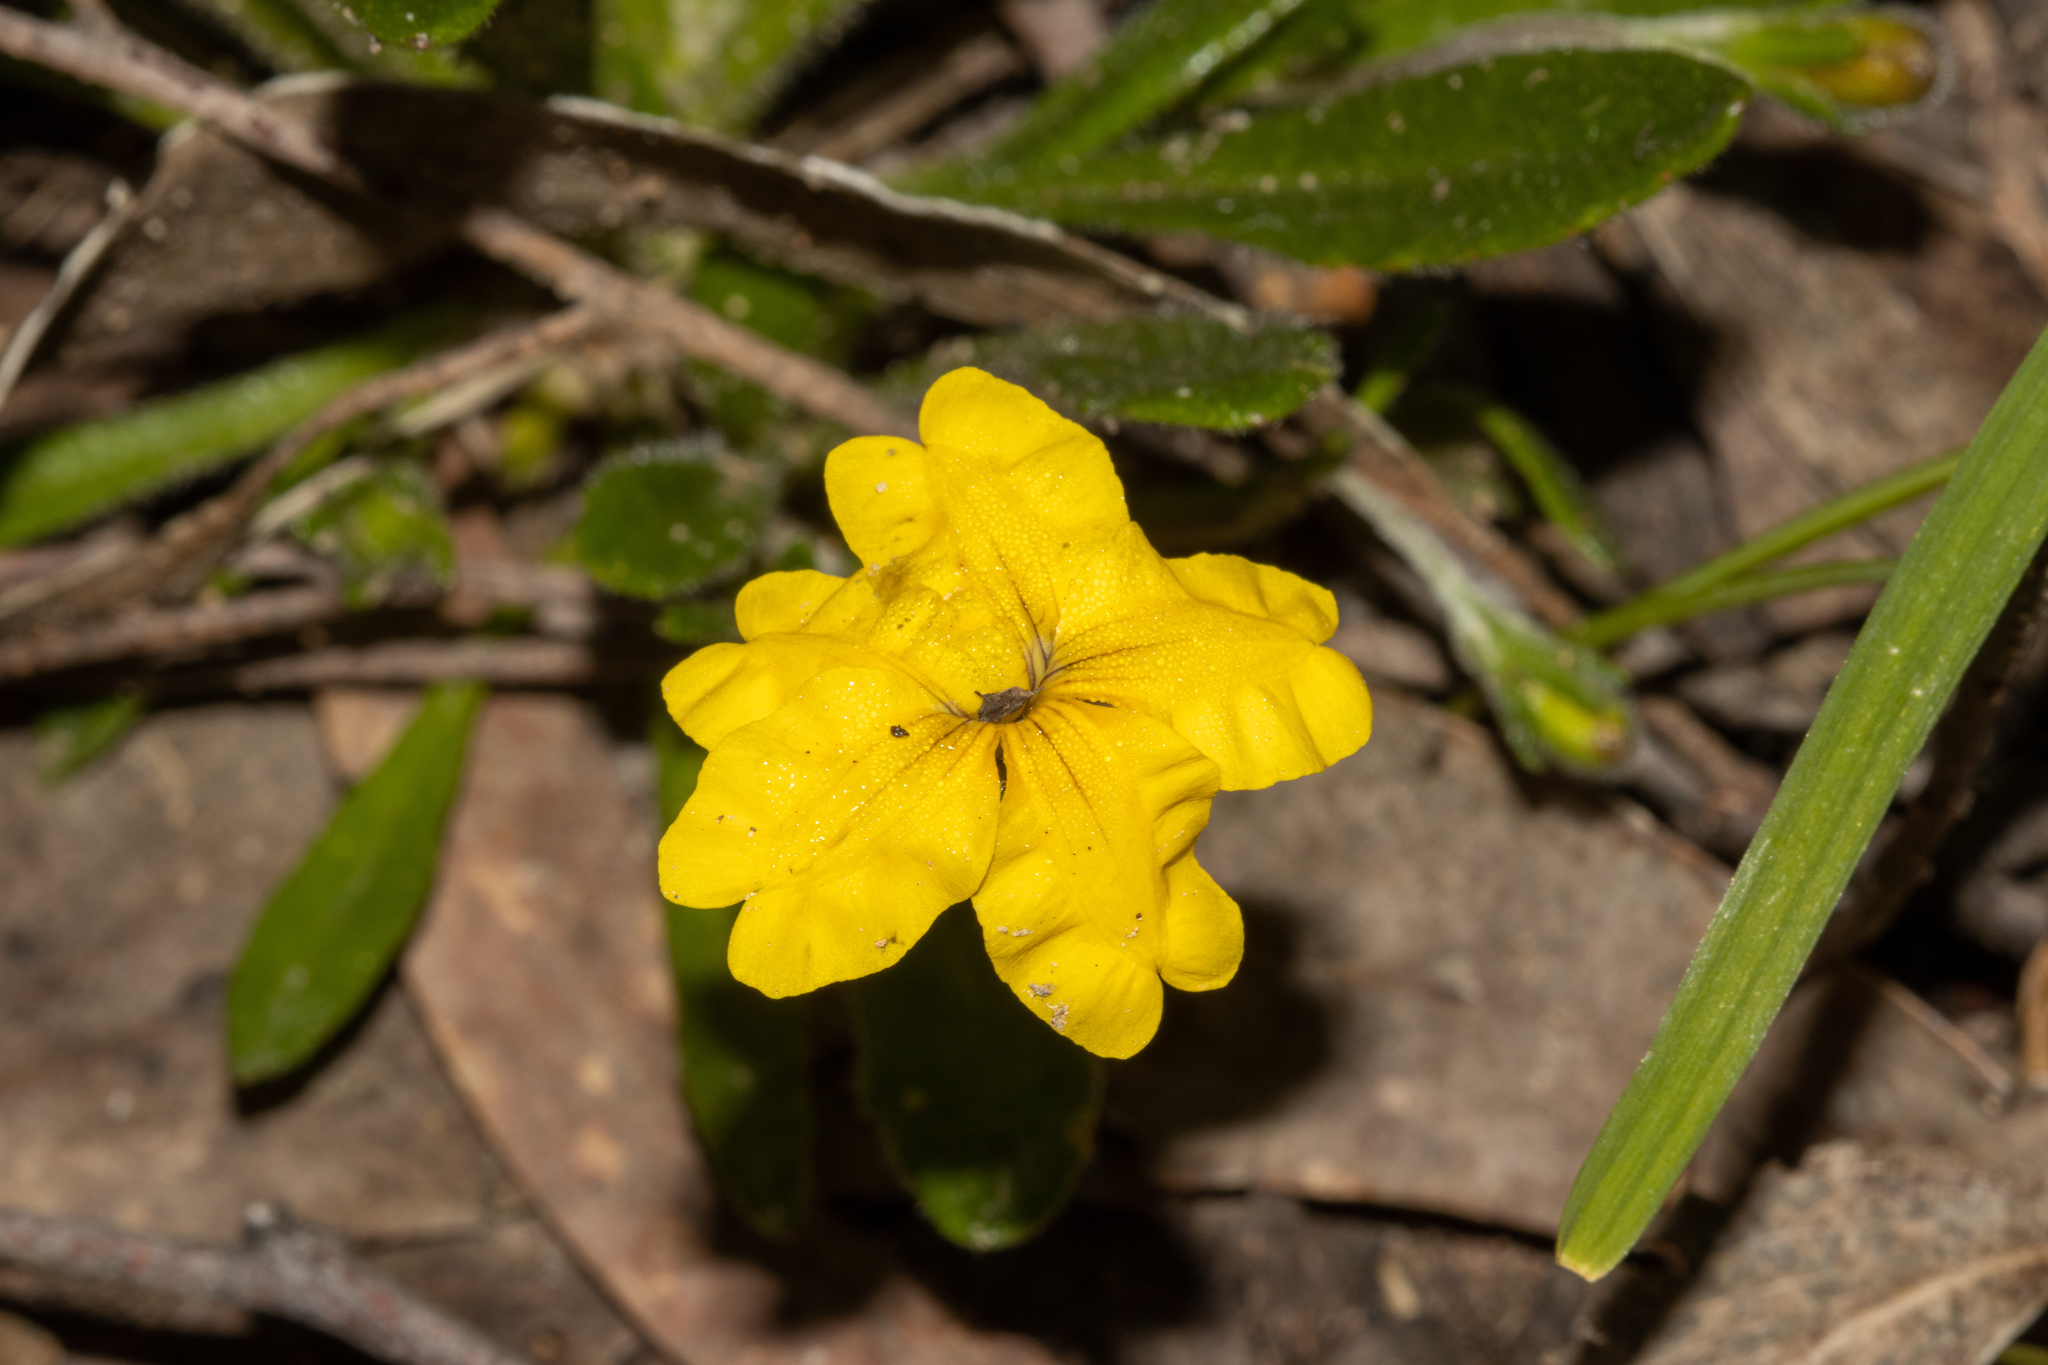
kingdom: Plantae
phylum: Tracheophyta
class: Magnoliopsida
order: Asterales
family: Goodeniaceae
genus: Goodenia
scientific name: Goodenia geniculata
